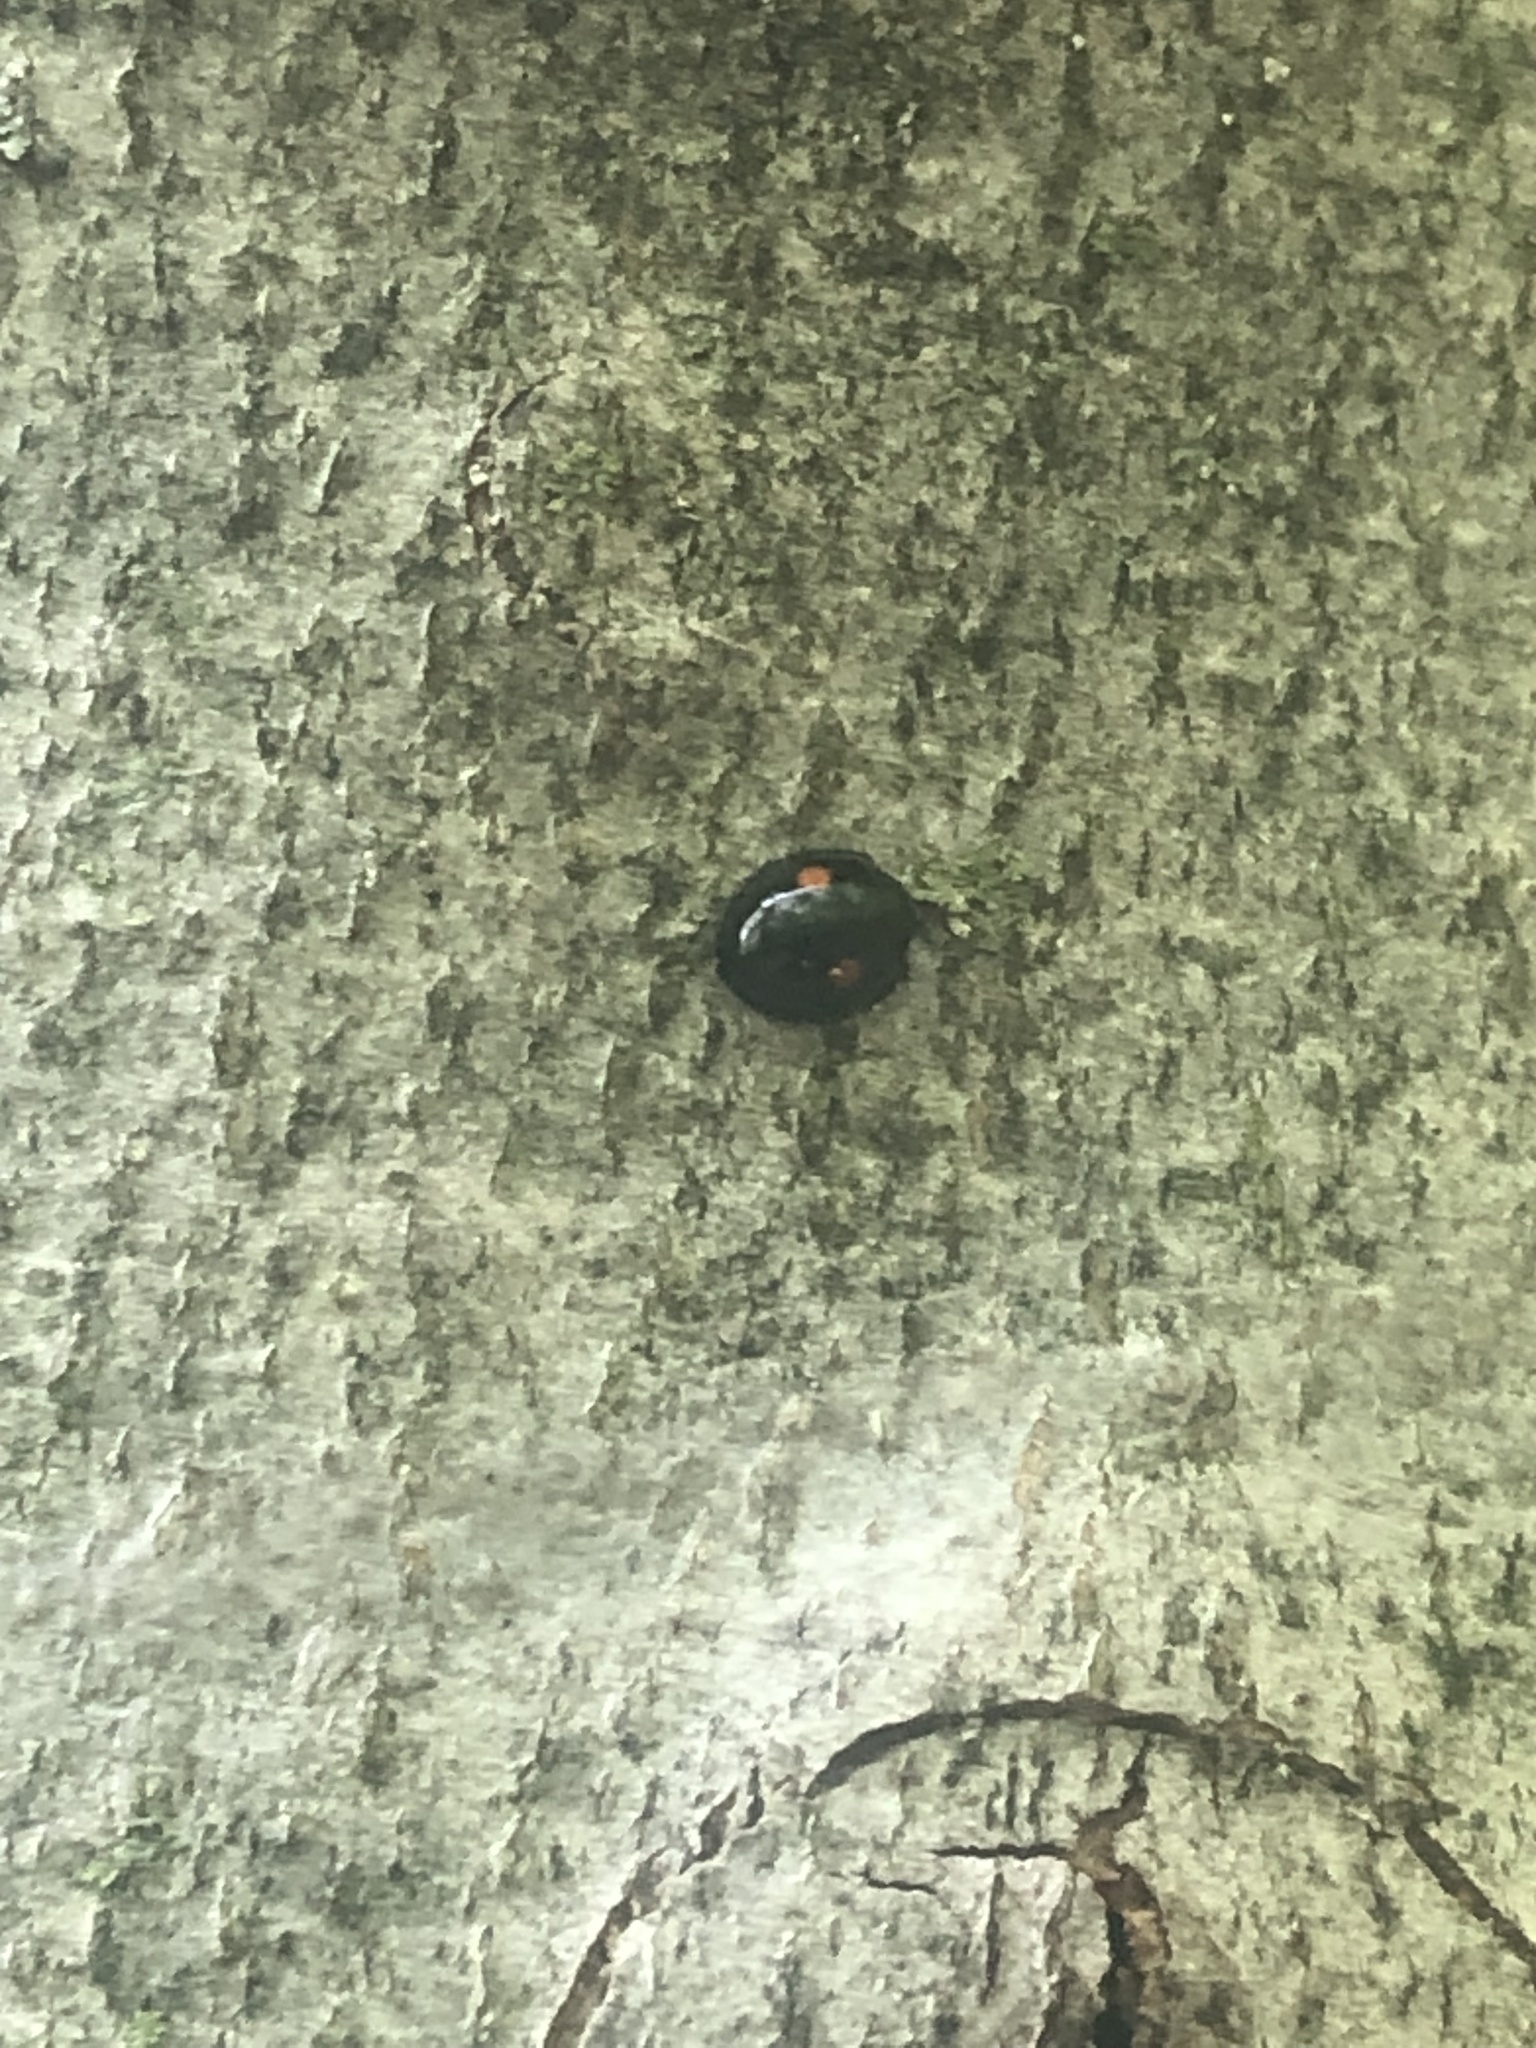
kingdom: Animalia
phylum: Arthropoda
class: Insecta
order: Coleoptera
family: Coccinellidae
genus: Chilocorus
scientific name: Chilocorus stigma
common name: Twicestabbed lady beetle
